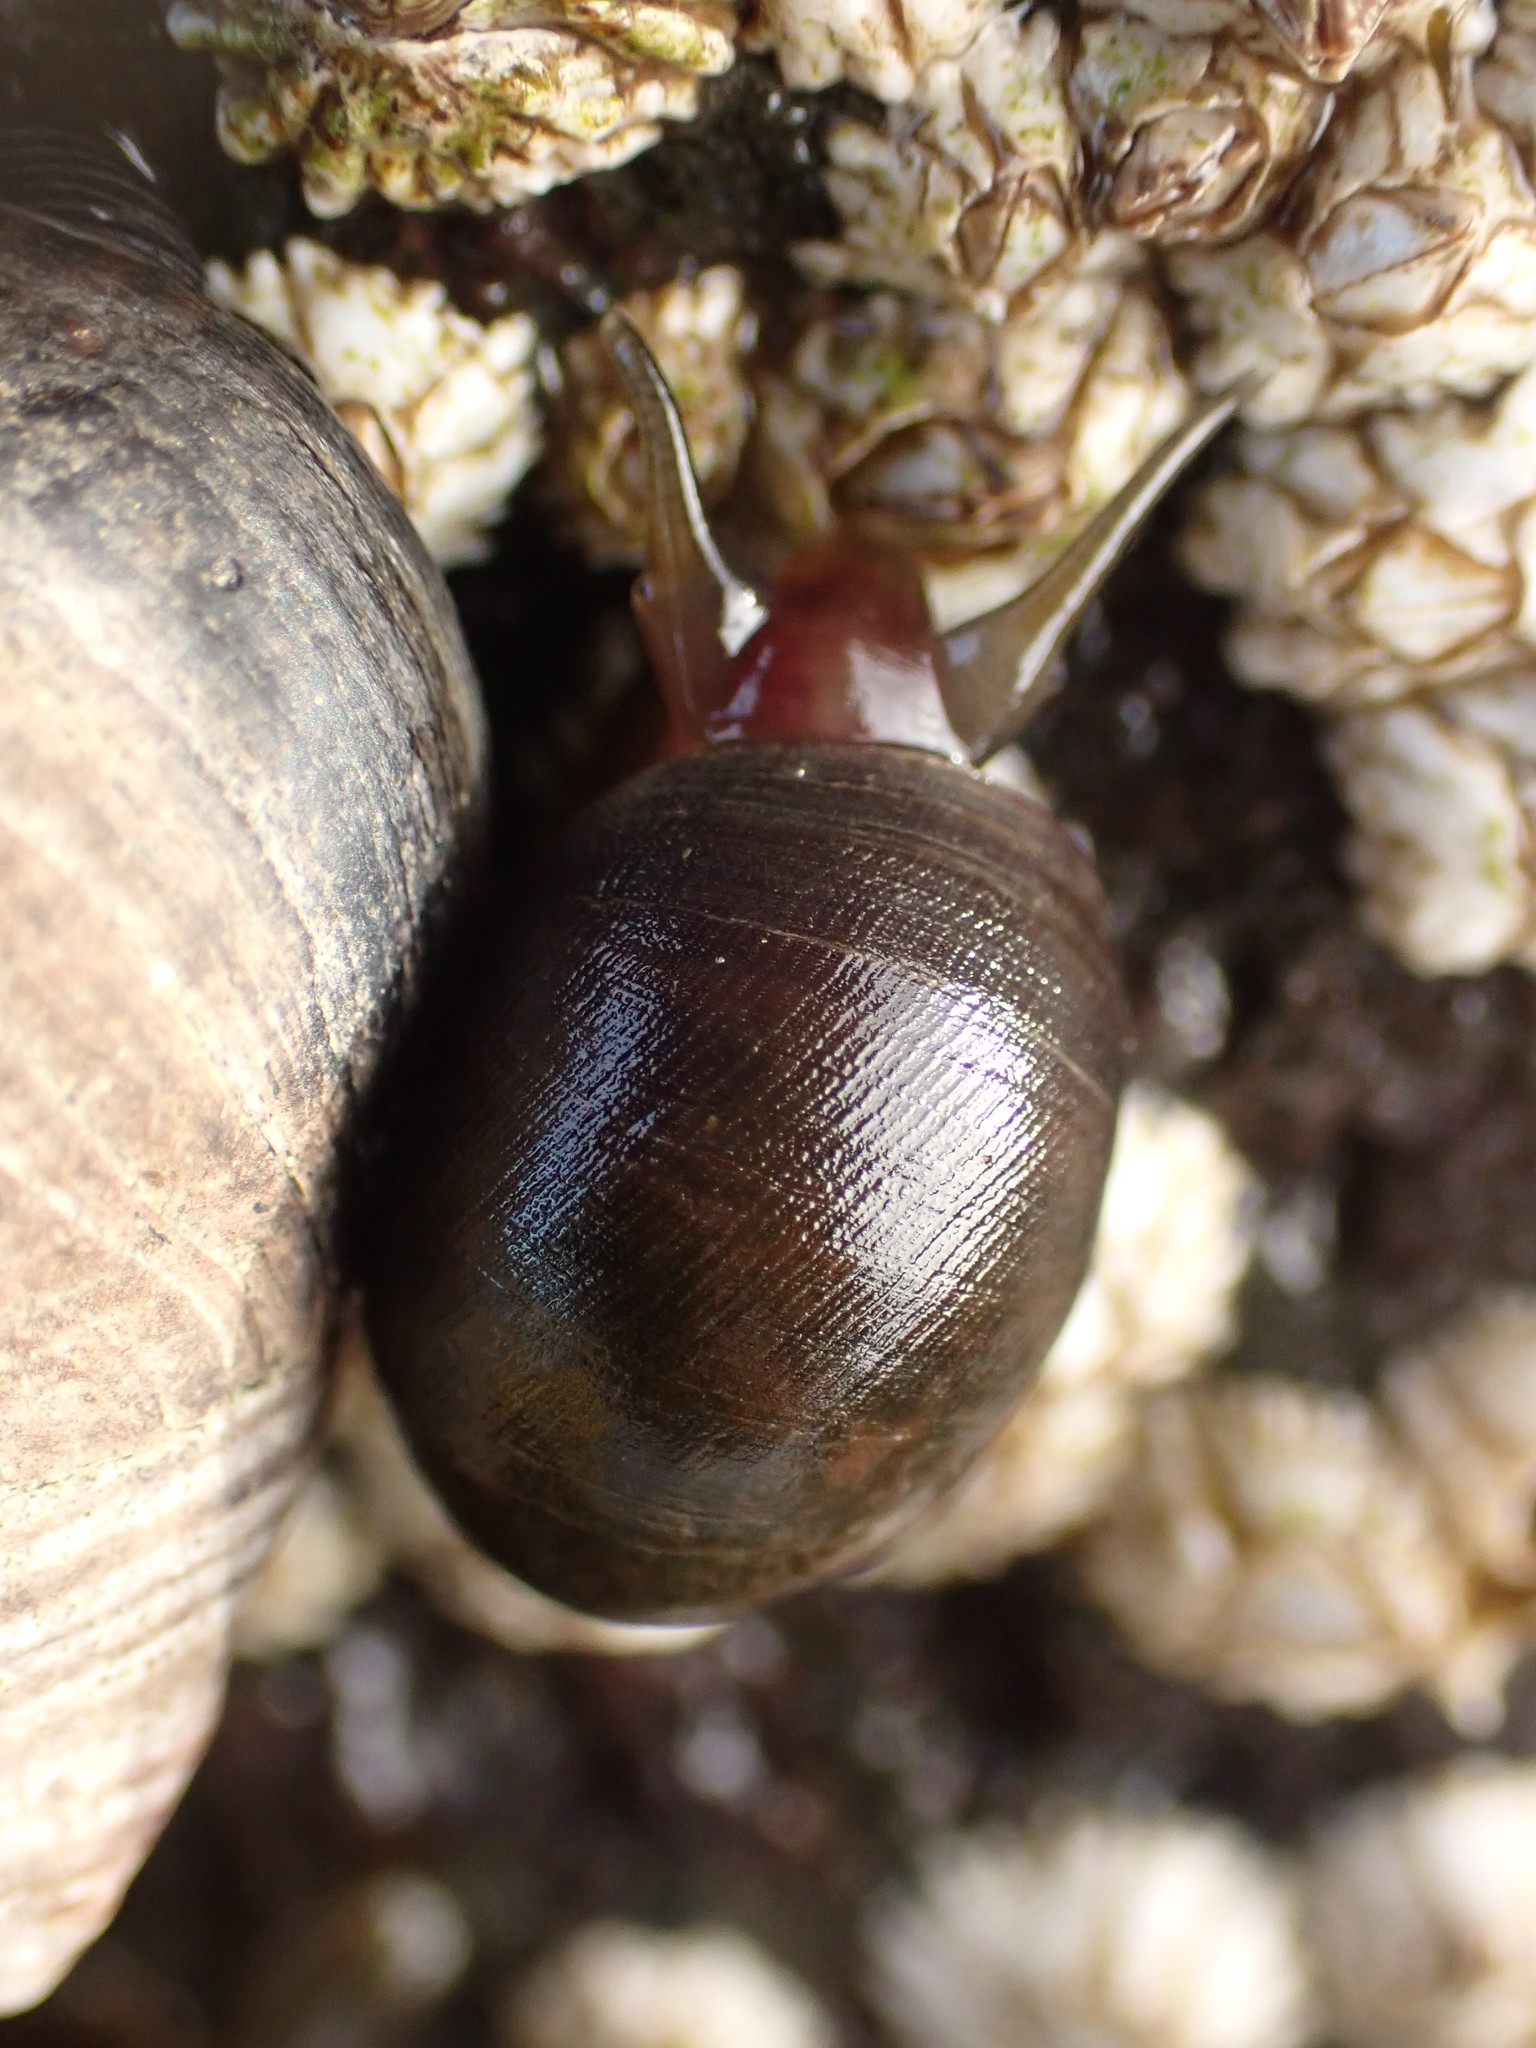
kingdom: Animalia
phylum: Mollusca
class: Gastropoda
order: Littorinimorpha
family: Littorinidae
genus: Littorina
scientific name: Littorina obtusata
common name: Flat periwinkle
